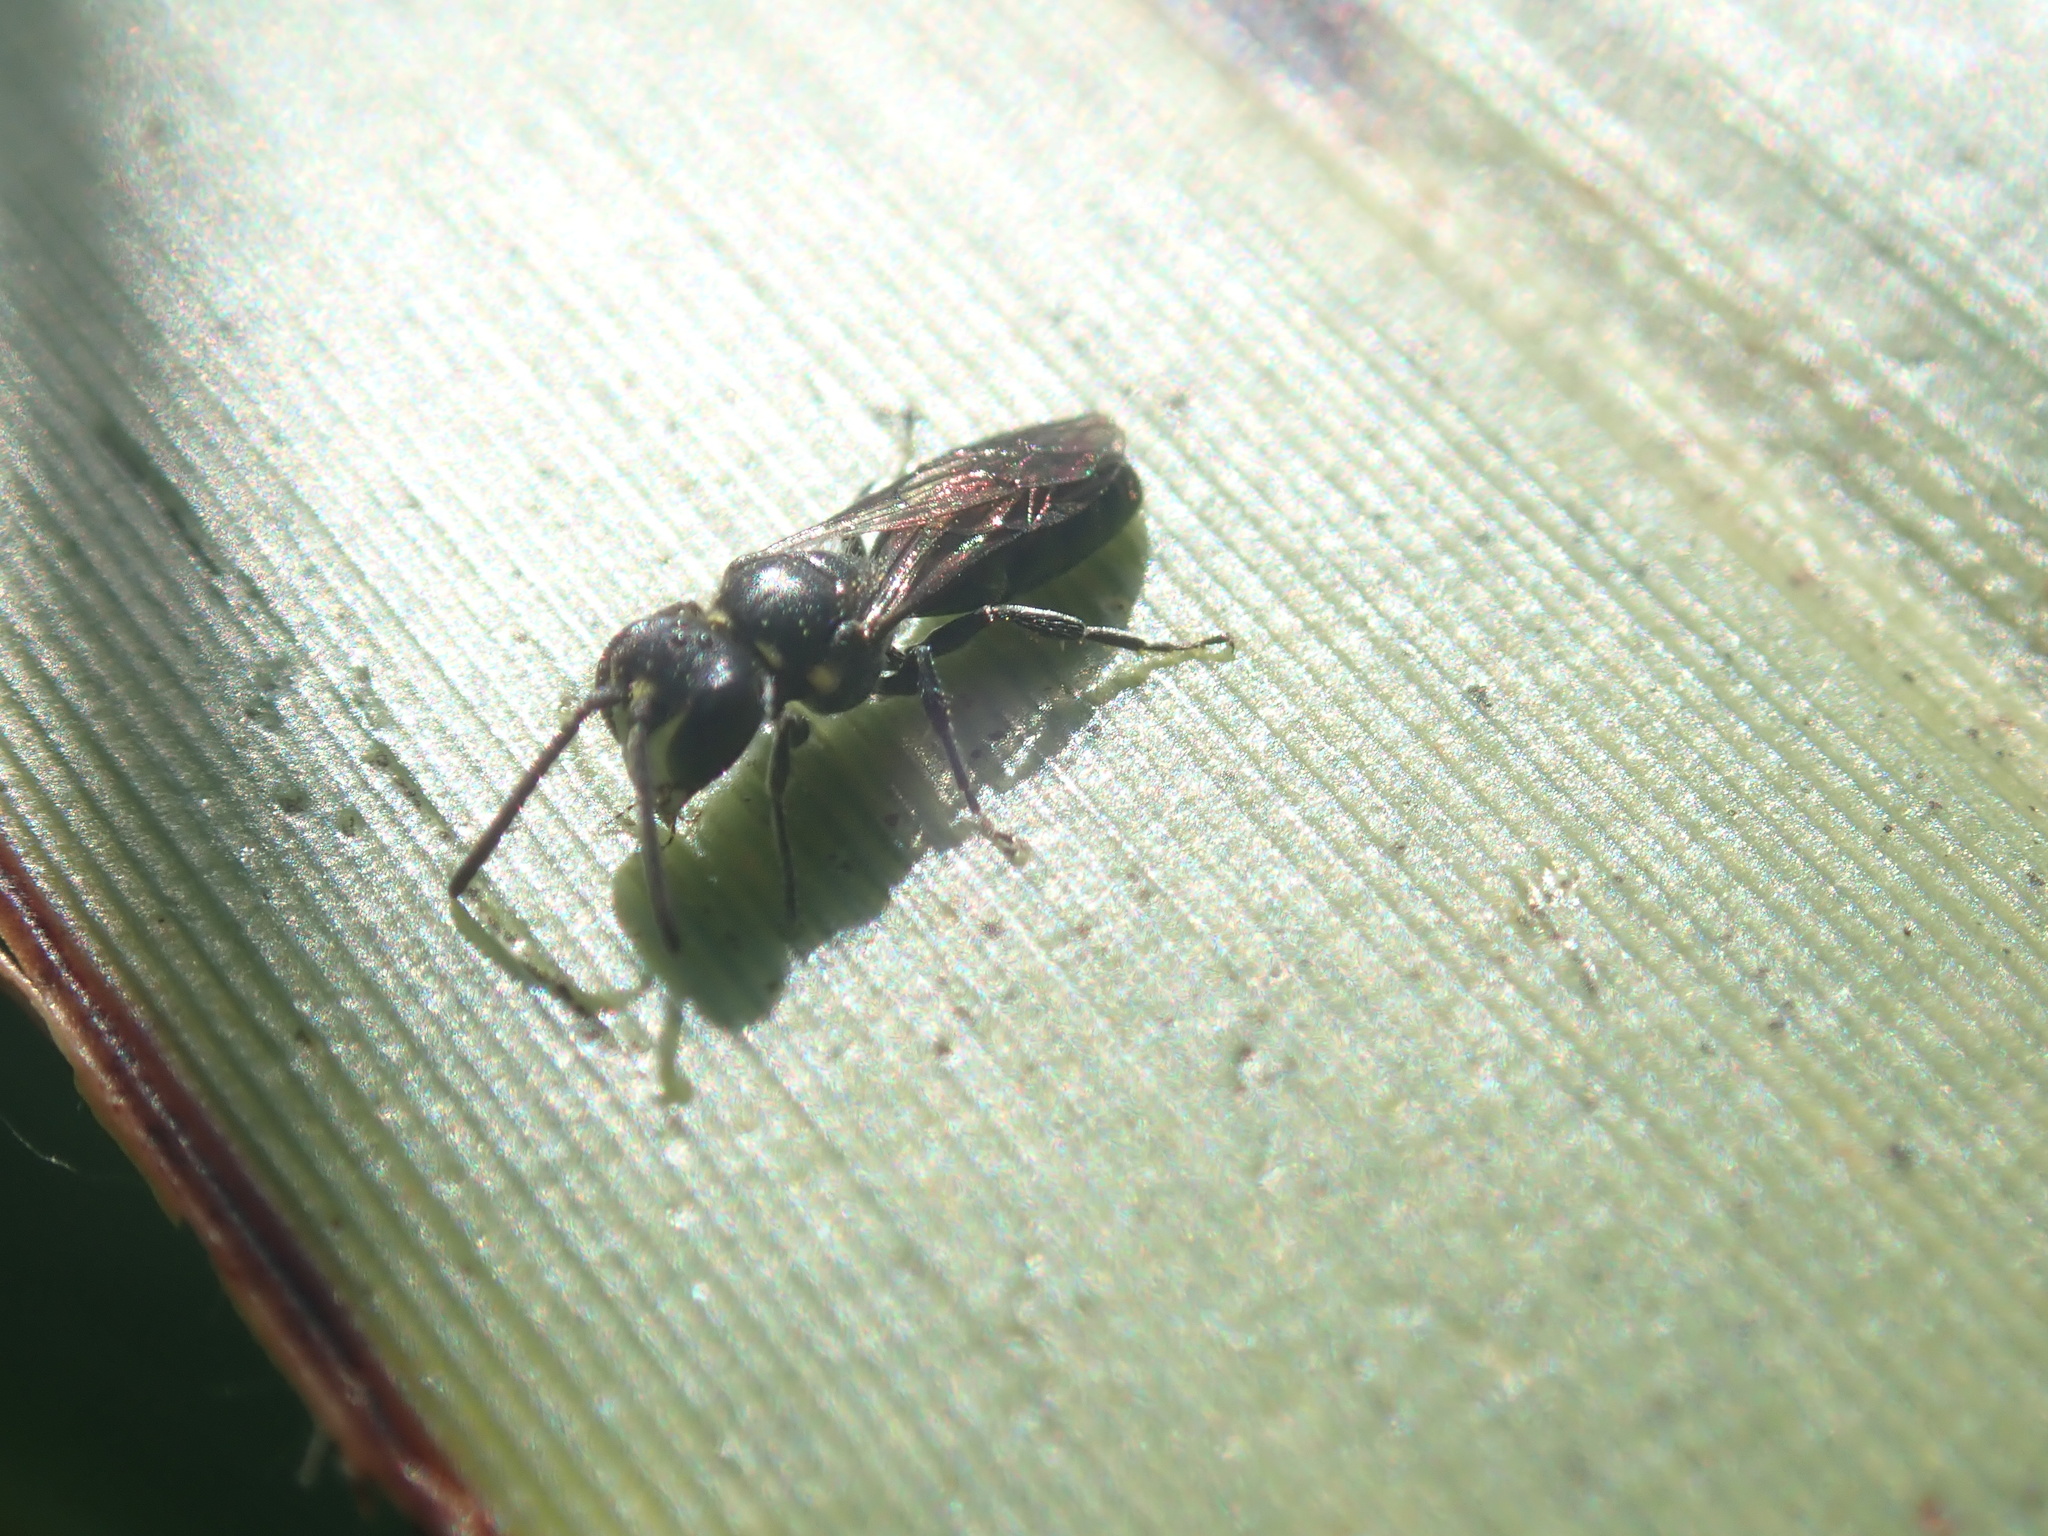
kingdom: Animalia
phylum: Arthropoda
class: Insecta
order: Hymenoptera
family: Colletidae
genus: Hylaeus
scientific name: Hylaeus relegatus
